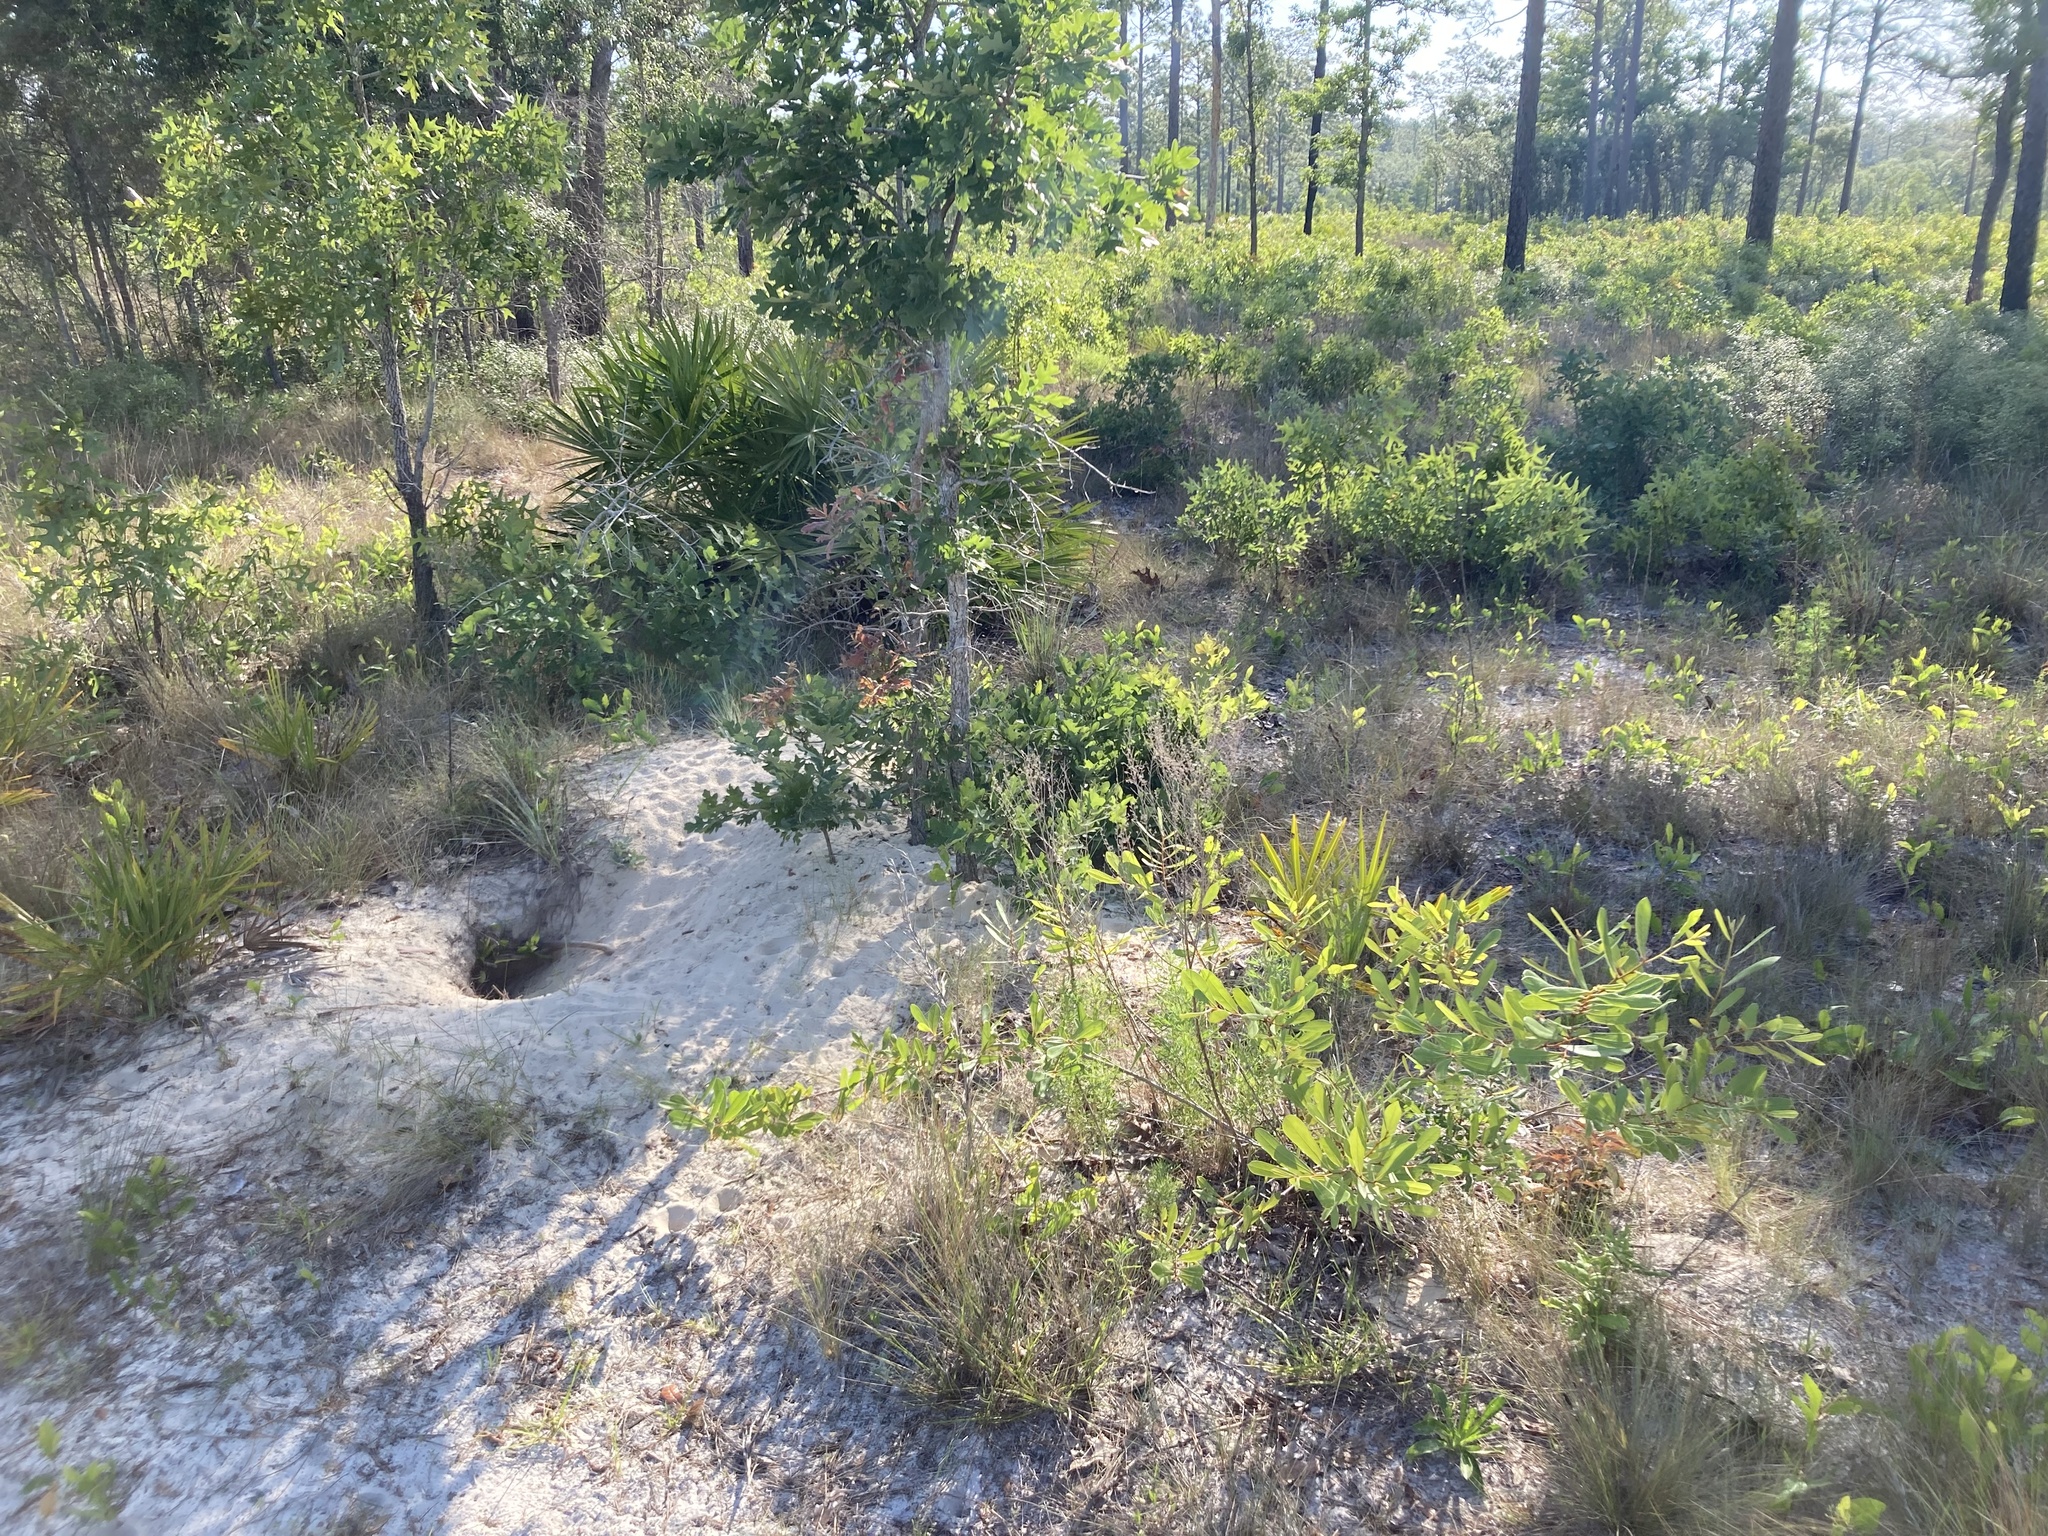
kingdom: Animalia
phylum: Chordata
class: Testudines
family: Testudinidae
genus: Gopherus
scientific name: Gopherus polyphemus
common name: Florida gopher tortoise
